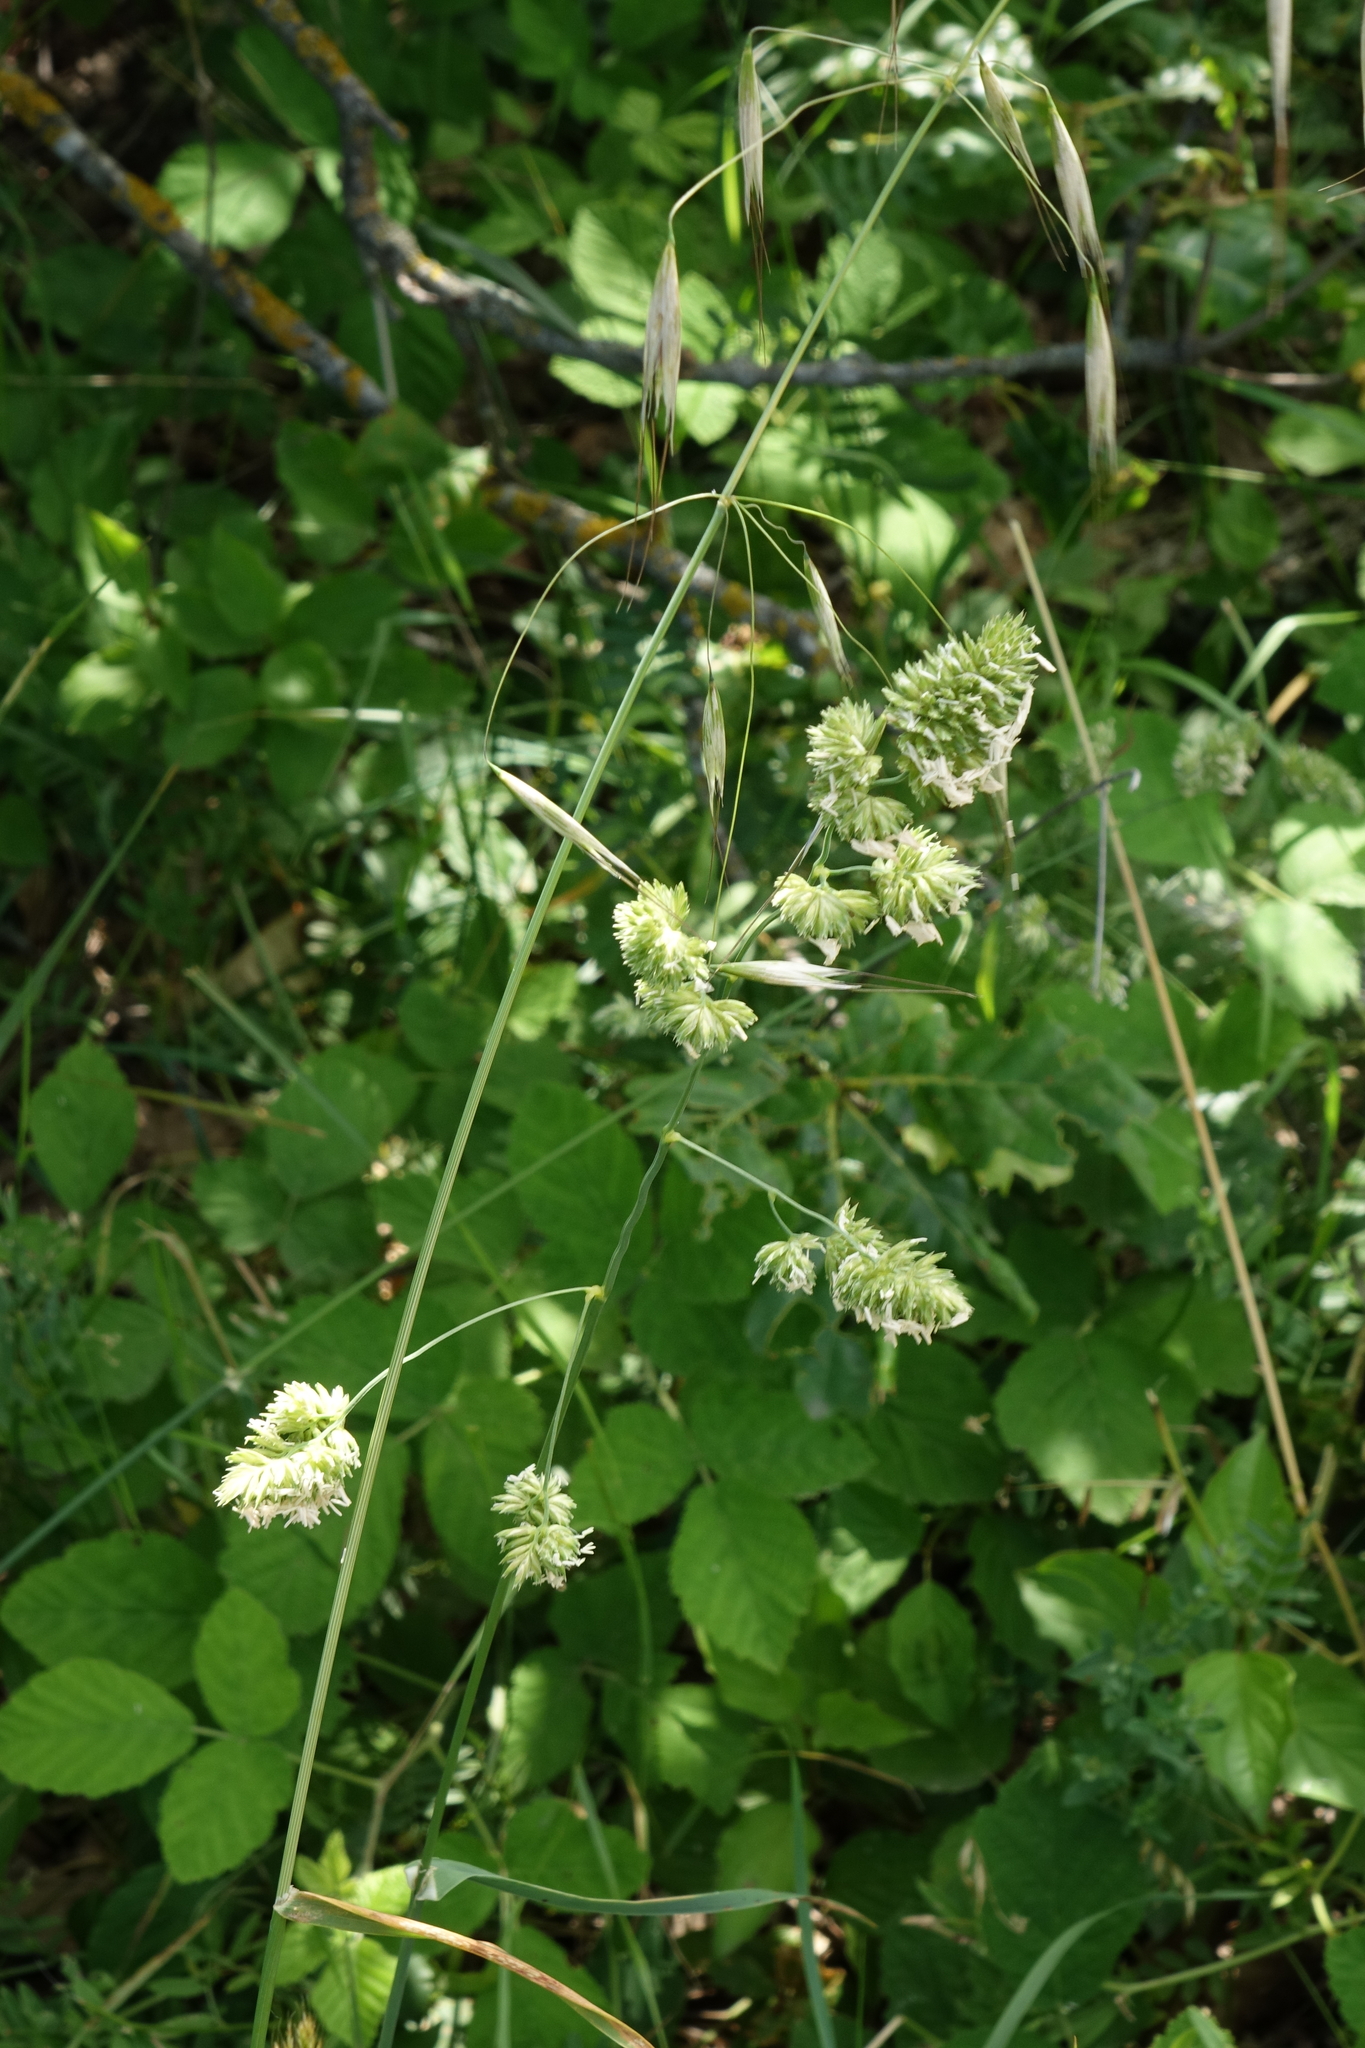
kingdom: Plantae
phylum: Tracheophyta
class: Liliopsida
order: Poales
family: Poaceae
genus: Dactylis
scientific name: Dactylis glomerata
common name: Orchardgrass
